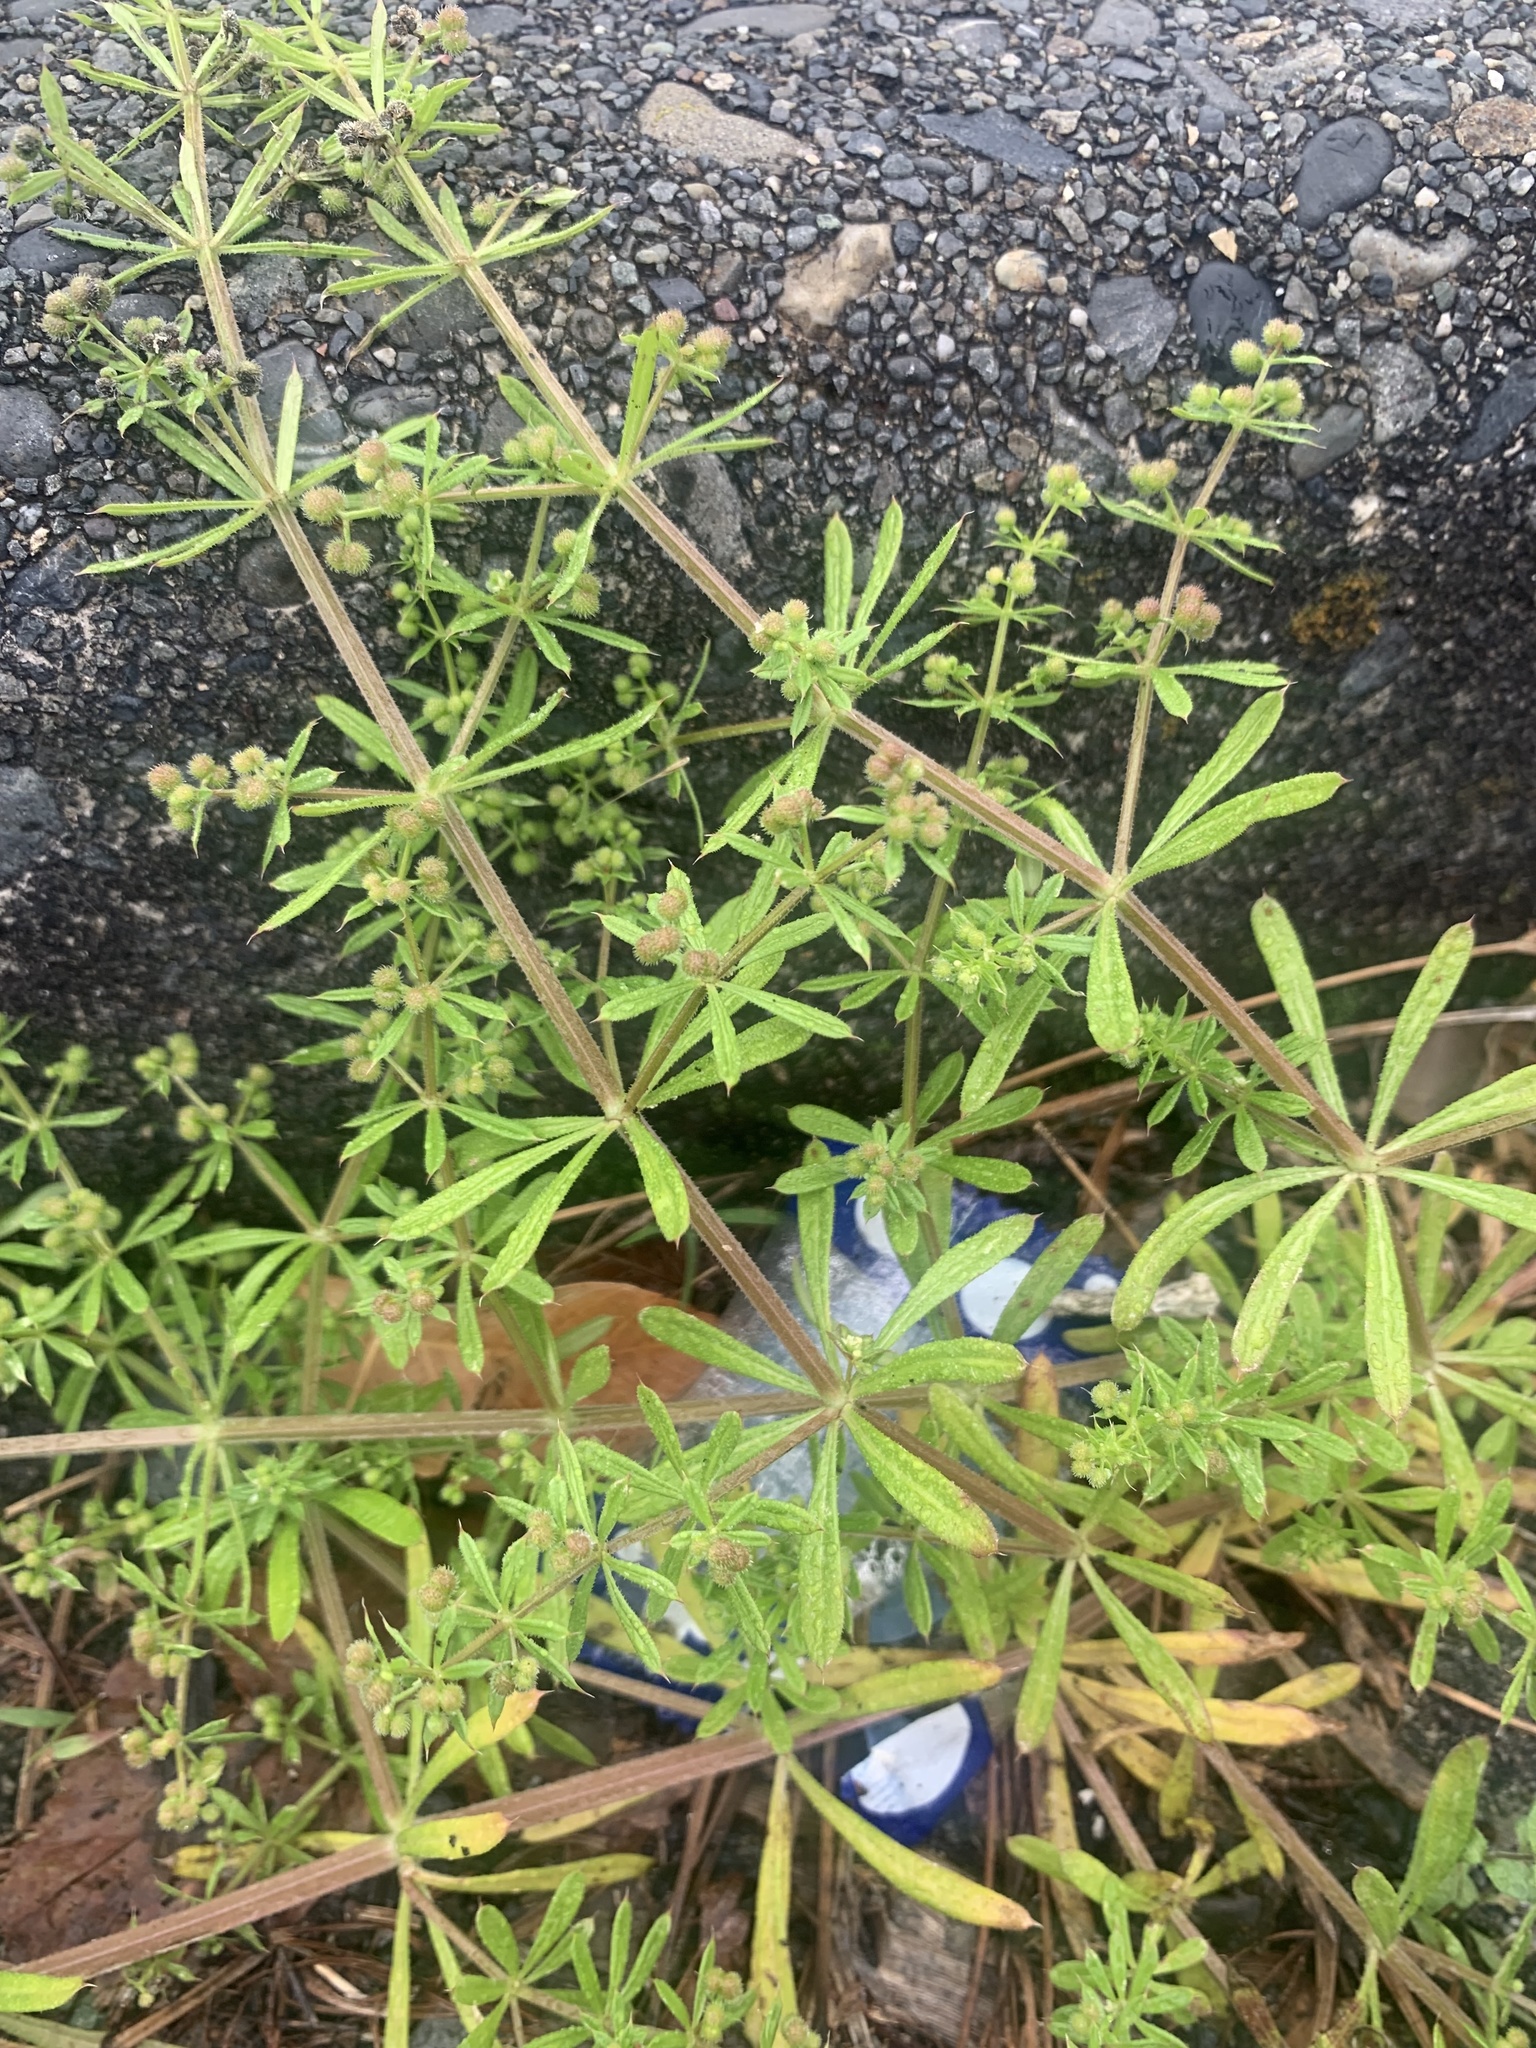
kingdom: Plantae
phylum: Tracheophyta
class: Magnoliopsida
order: Gentianales
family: Rubiaceae
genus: Galium
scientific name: Galium
